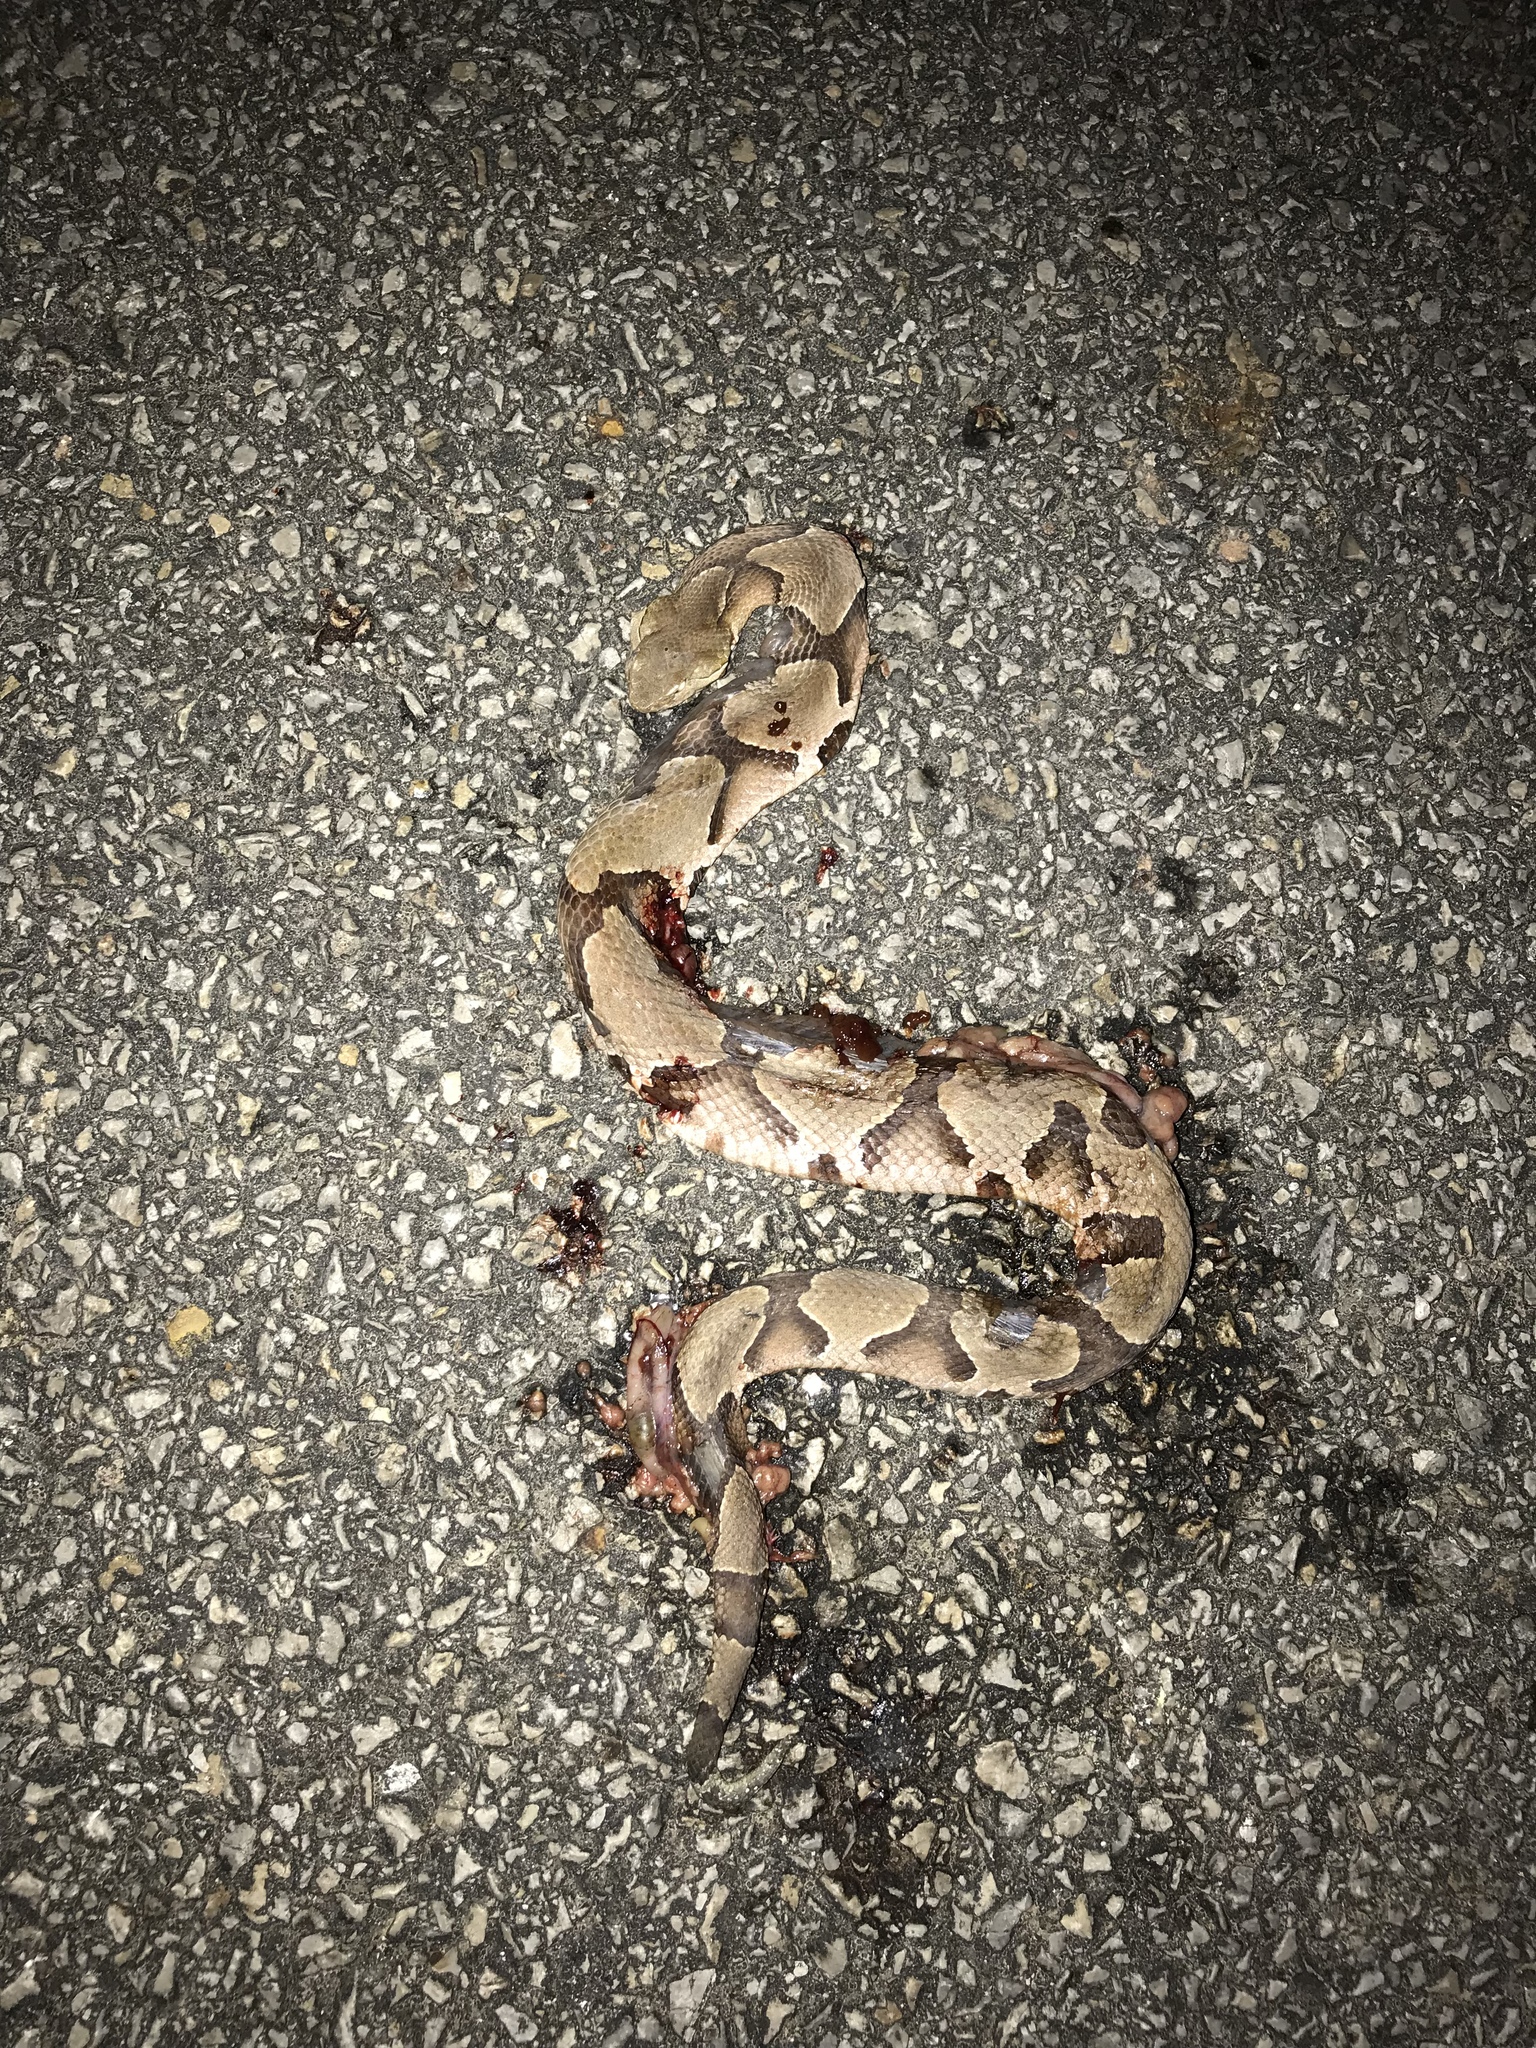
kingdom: Animalia
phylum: Chordata
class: Squamata
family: Viperidae
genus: Agkistrodon
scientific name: Agkistrodon contortrix
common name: Northern copperhead
